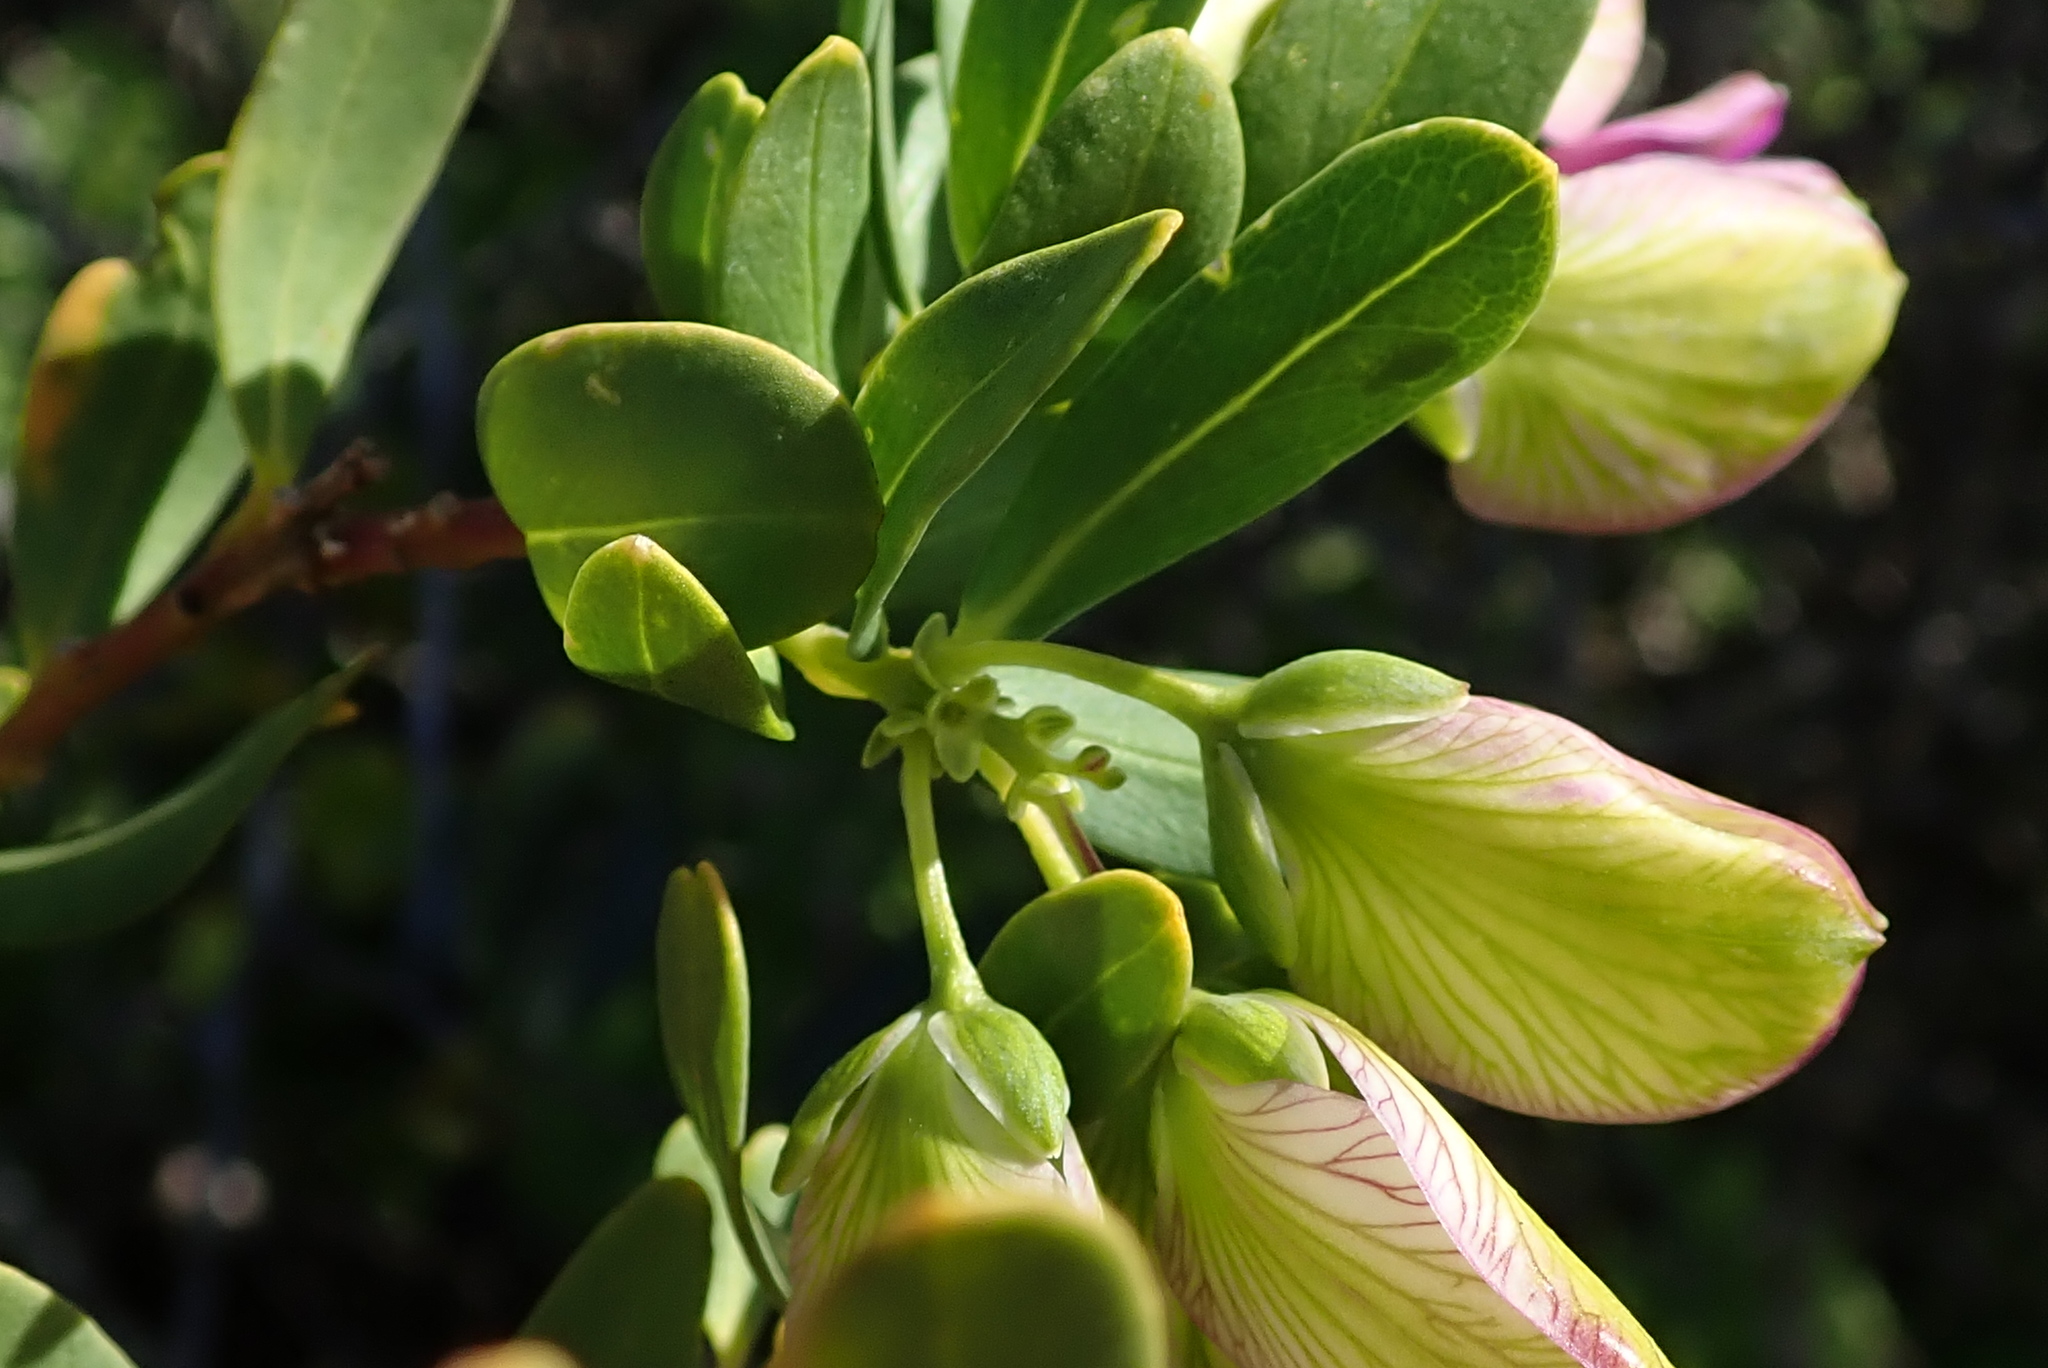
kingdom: Plantae
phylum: Tracheophyta
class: Magnoliopsida
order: Fabales
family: Polygalaceae
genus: Polygala
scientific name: Polygala myrtifolia
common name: Myrtle-leaf milkwort
